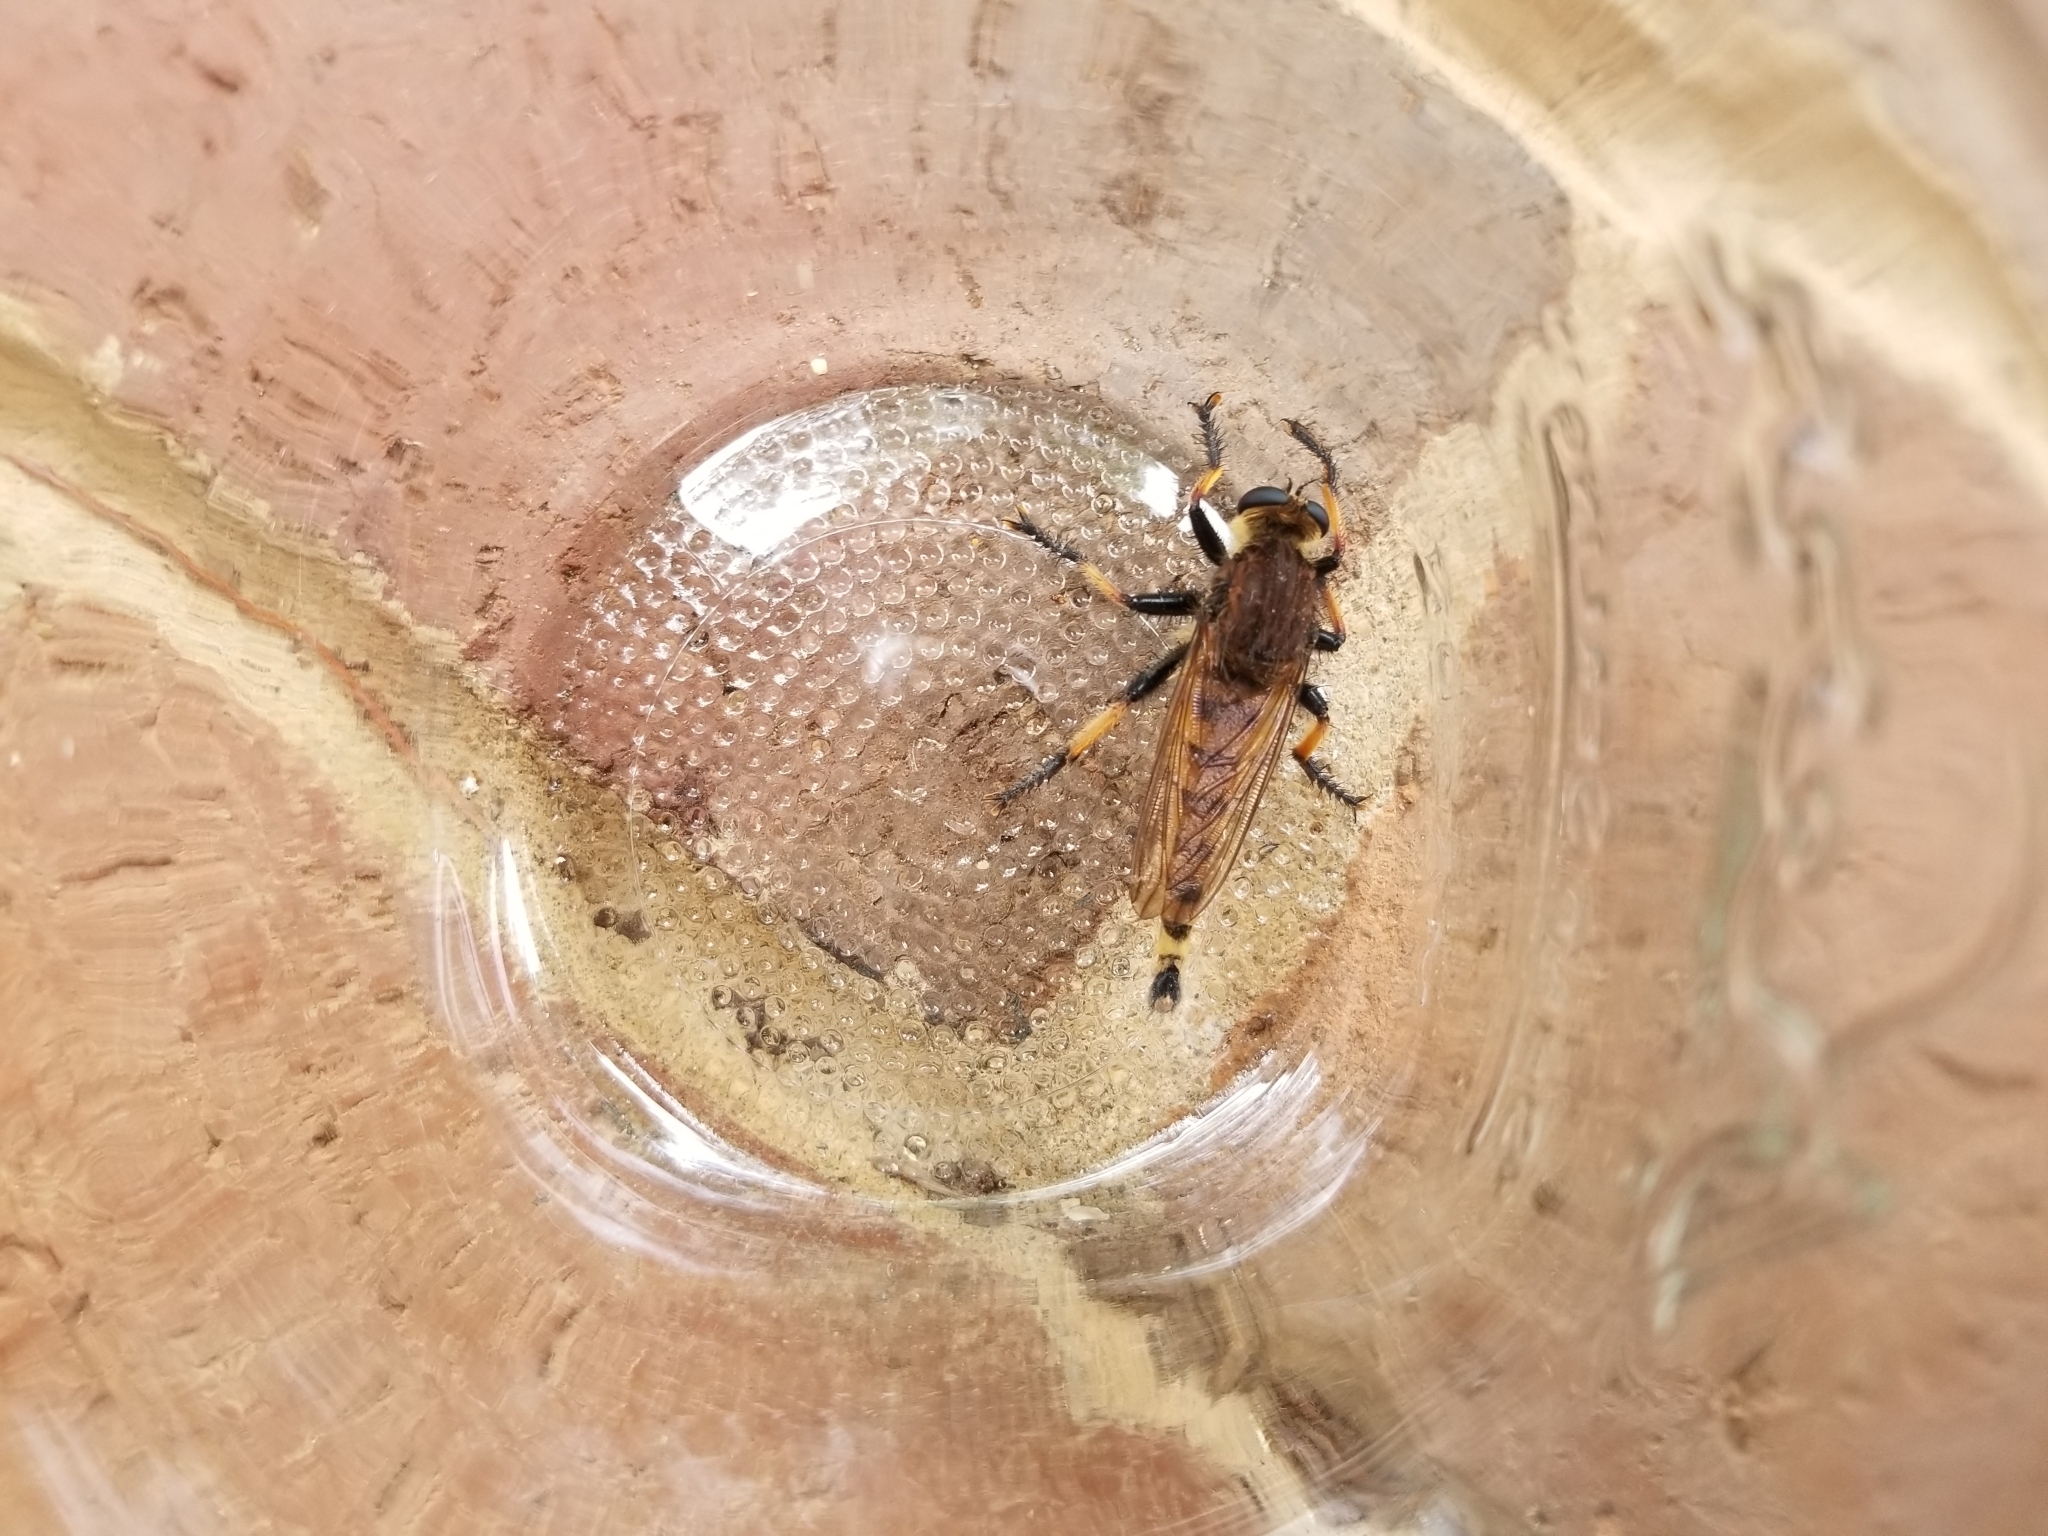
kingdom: Animalia
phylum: Arthropoda
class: Insecta
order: Diptera
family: Asilidae
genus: Promachus
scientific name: Promachus rufipes
